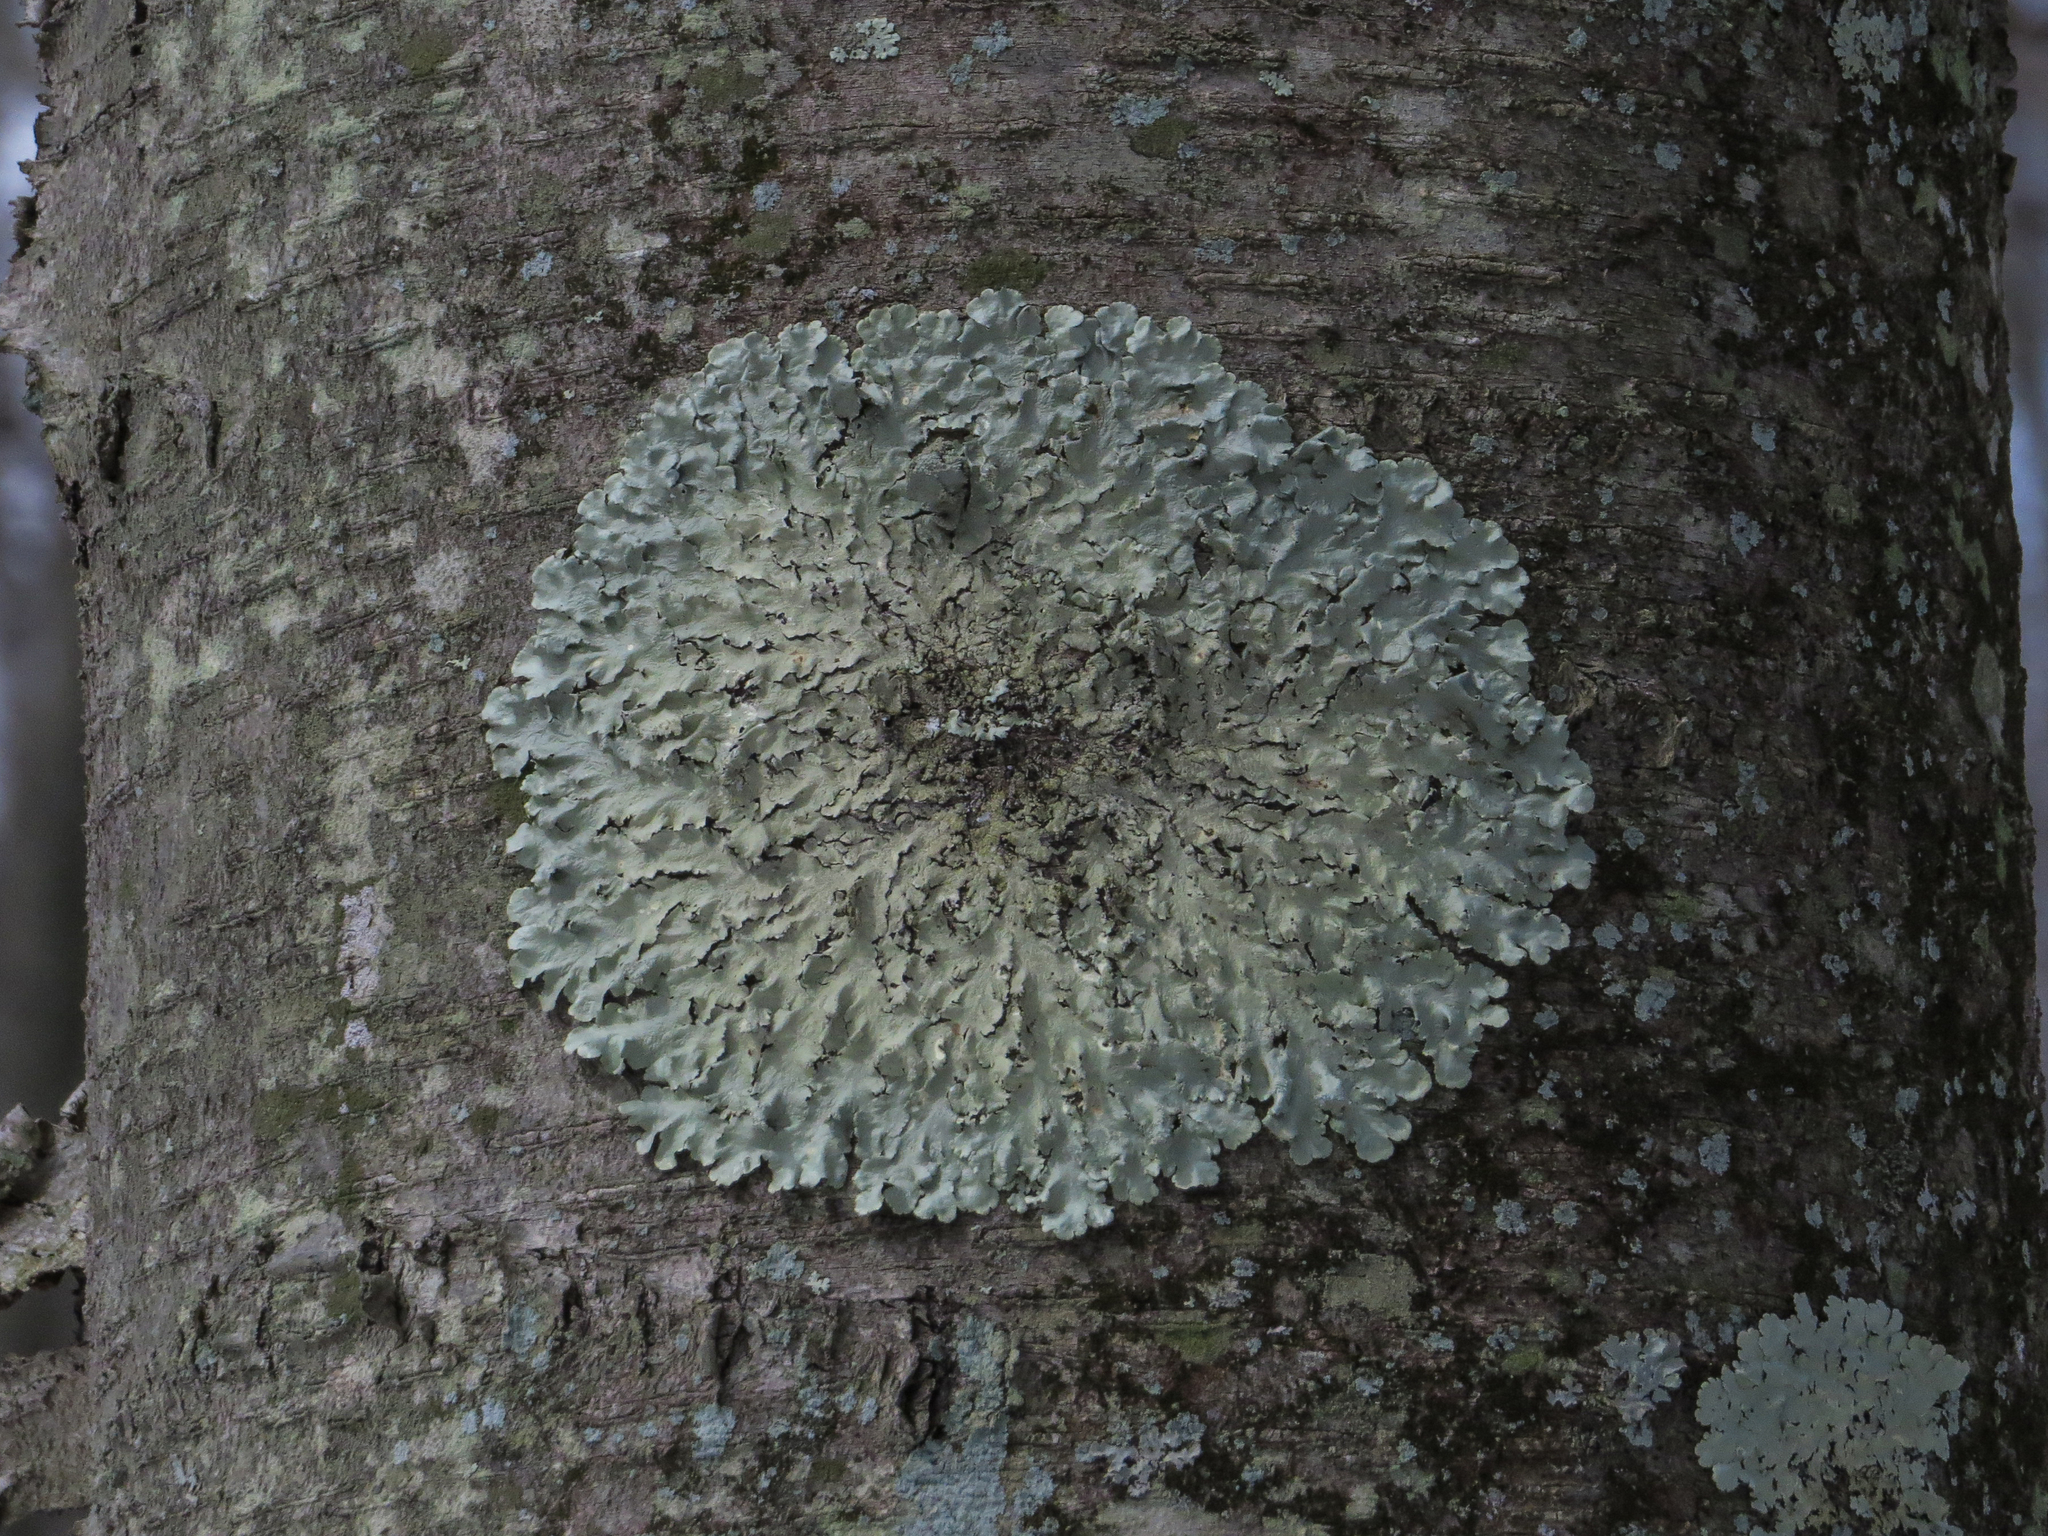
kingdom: Fungi
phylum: Ascomycota
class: Lecanoromycetes
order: Lecanorales
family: Parmeliaceae
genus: Flavoparmelia
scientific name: Flavoparmelia caperata
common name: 40-mile per hour lichen
